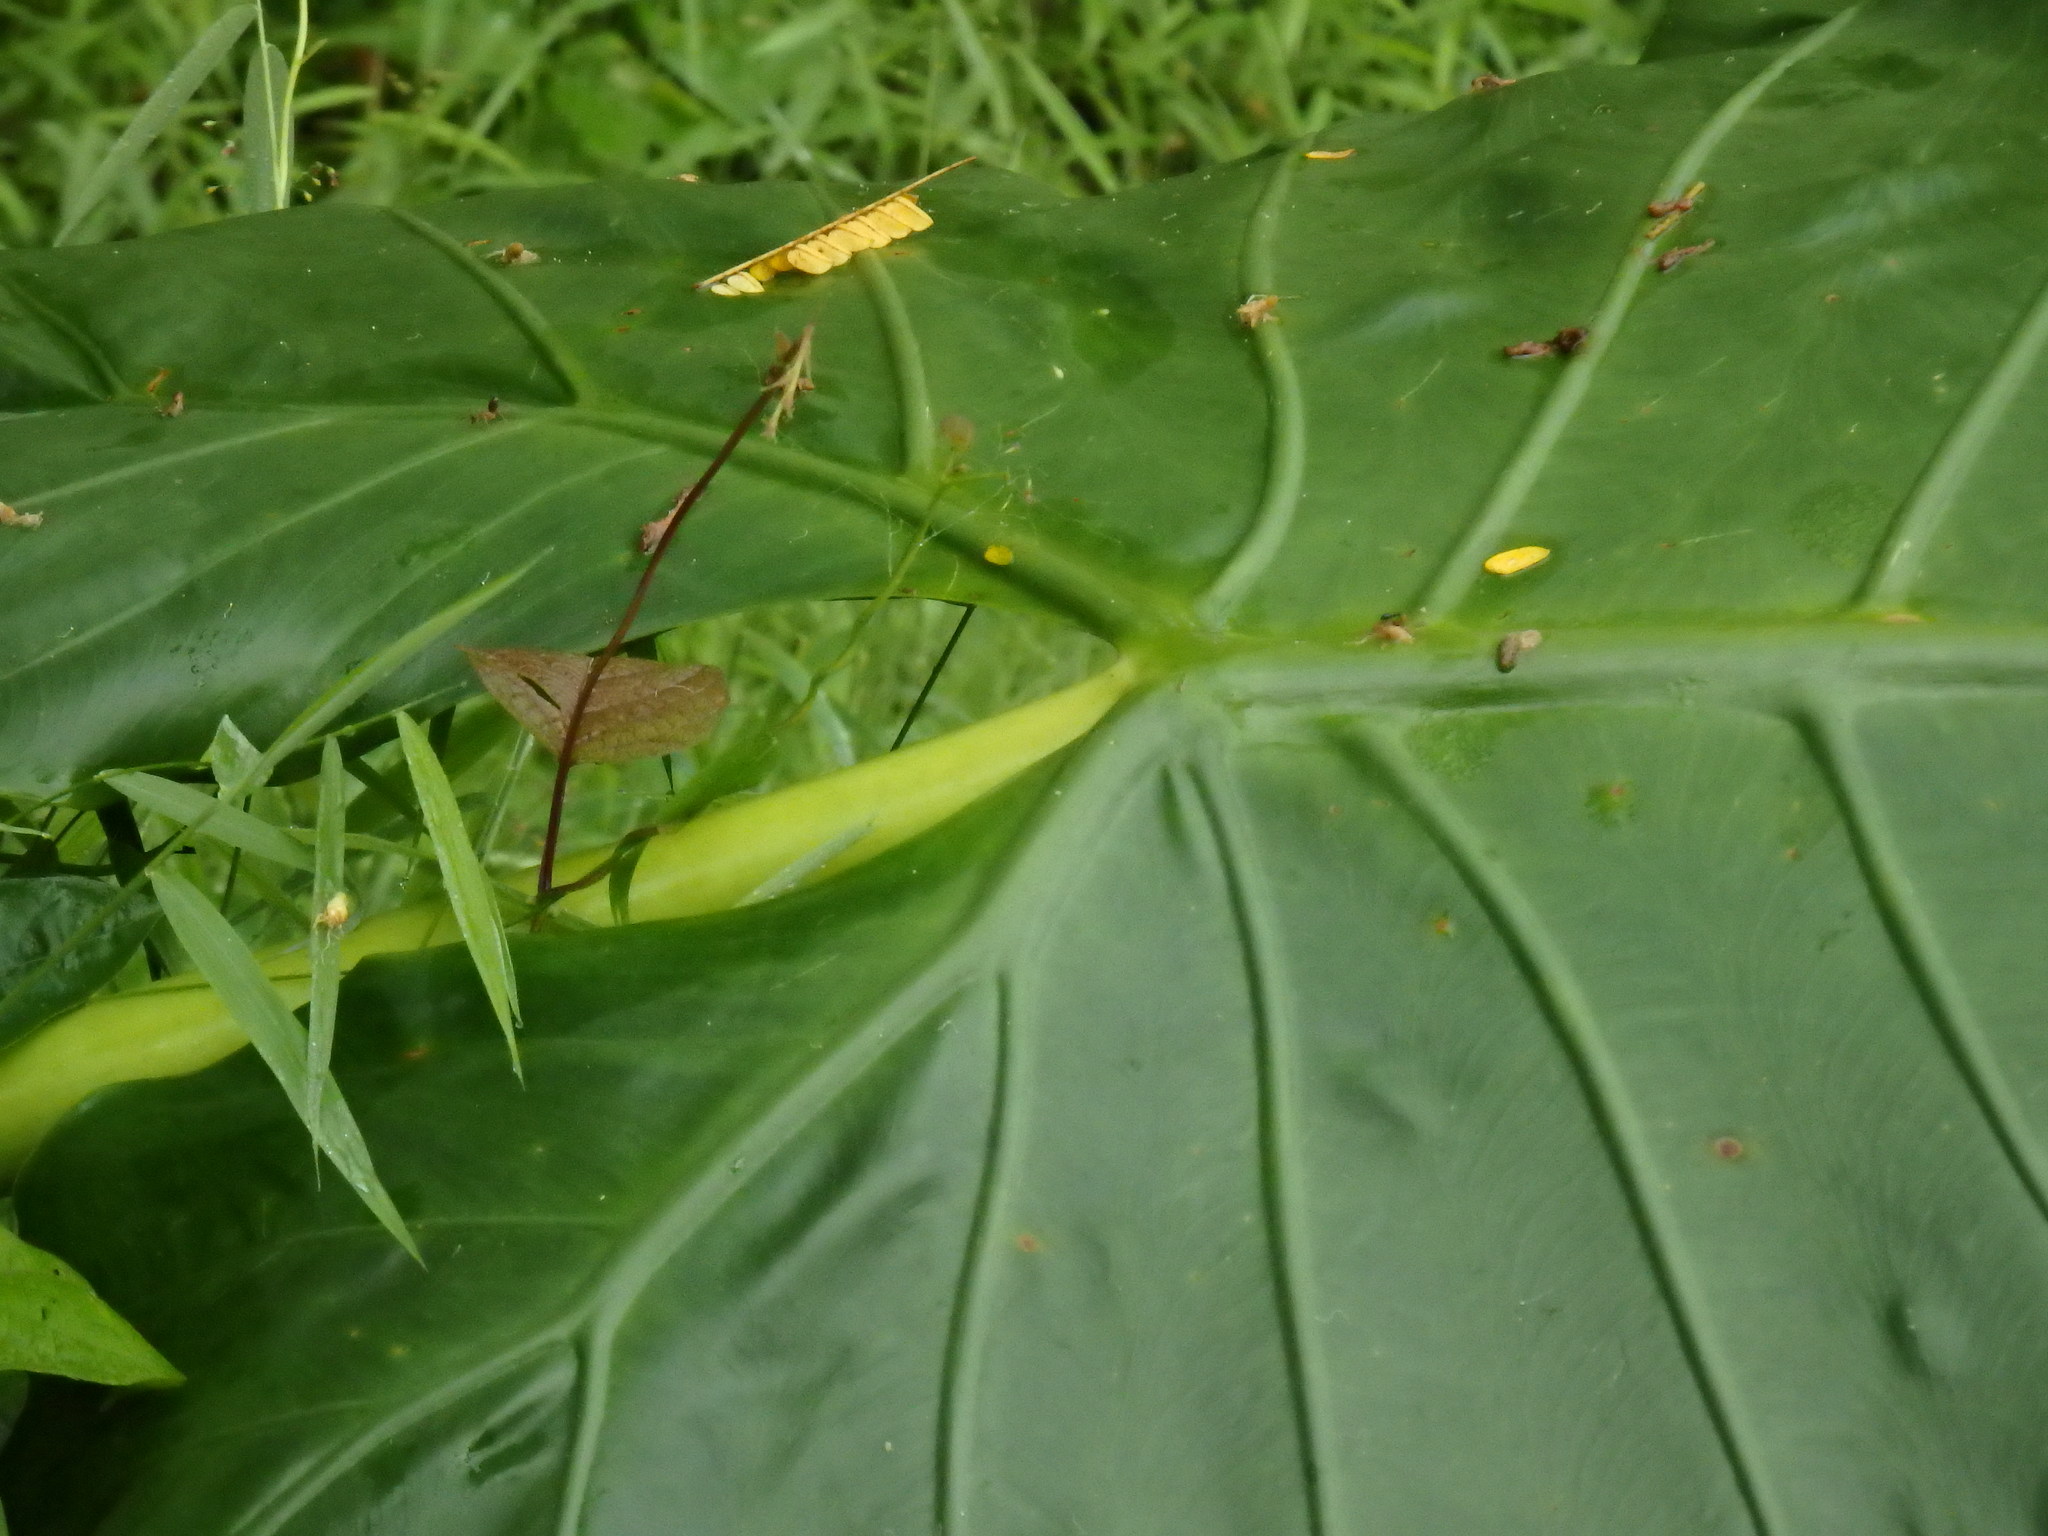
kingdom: Plantae
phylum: Tracheophyta
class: Liliopsida
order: Alismatales
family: Araceae
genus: Alocasia
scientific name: Alocasia macrorrhizos
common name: Giant taro
